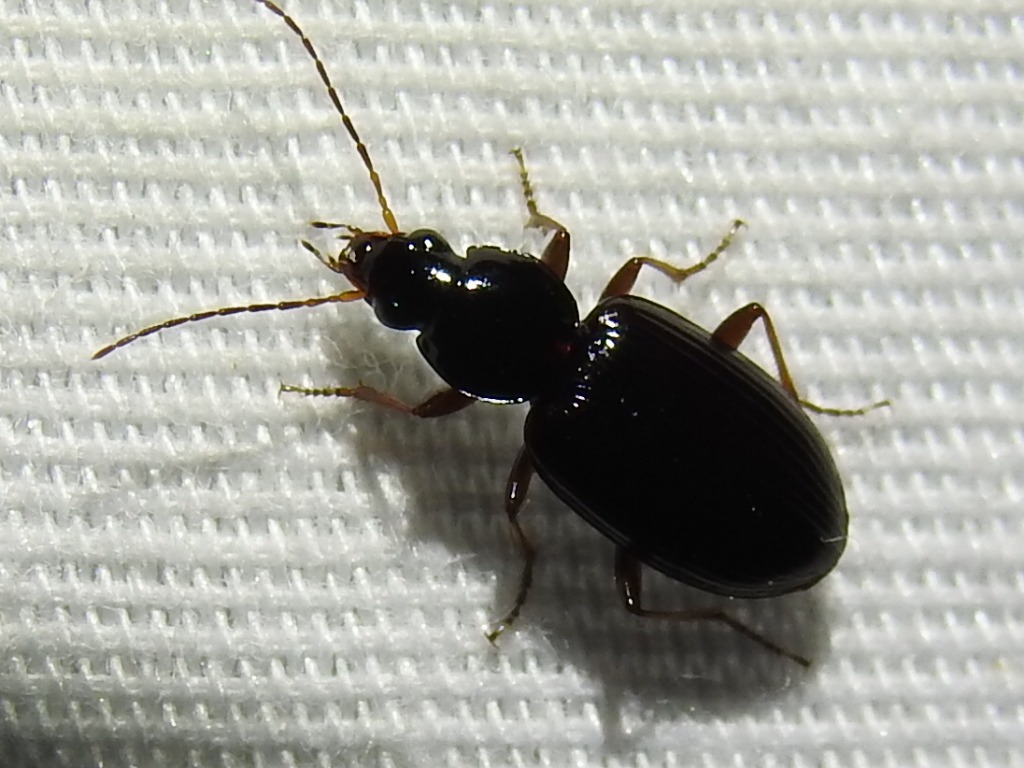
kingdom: Animalia
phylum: Arthropoda
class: Insecta
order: Coleoptera
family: Carabidae
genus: Agonum
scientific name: Agonum punctiforme
